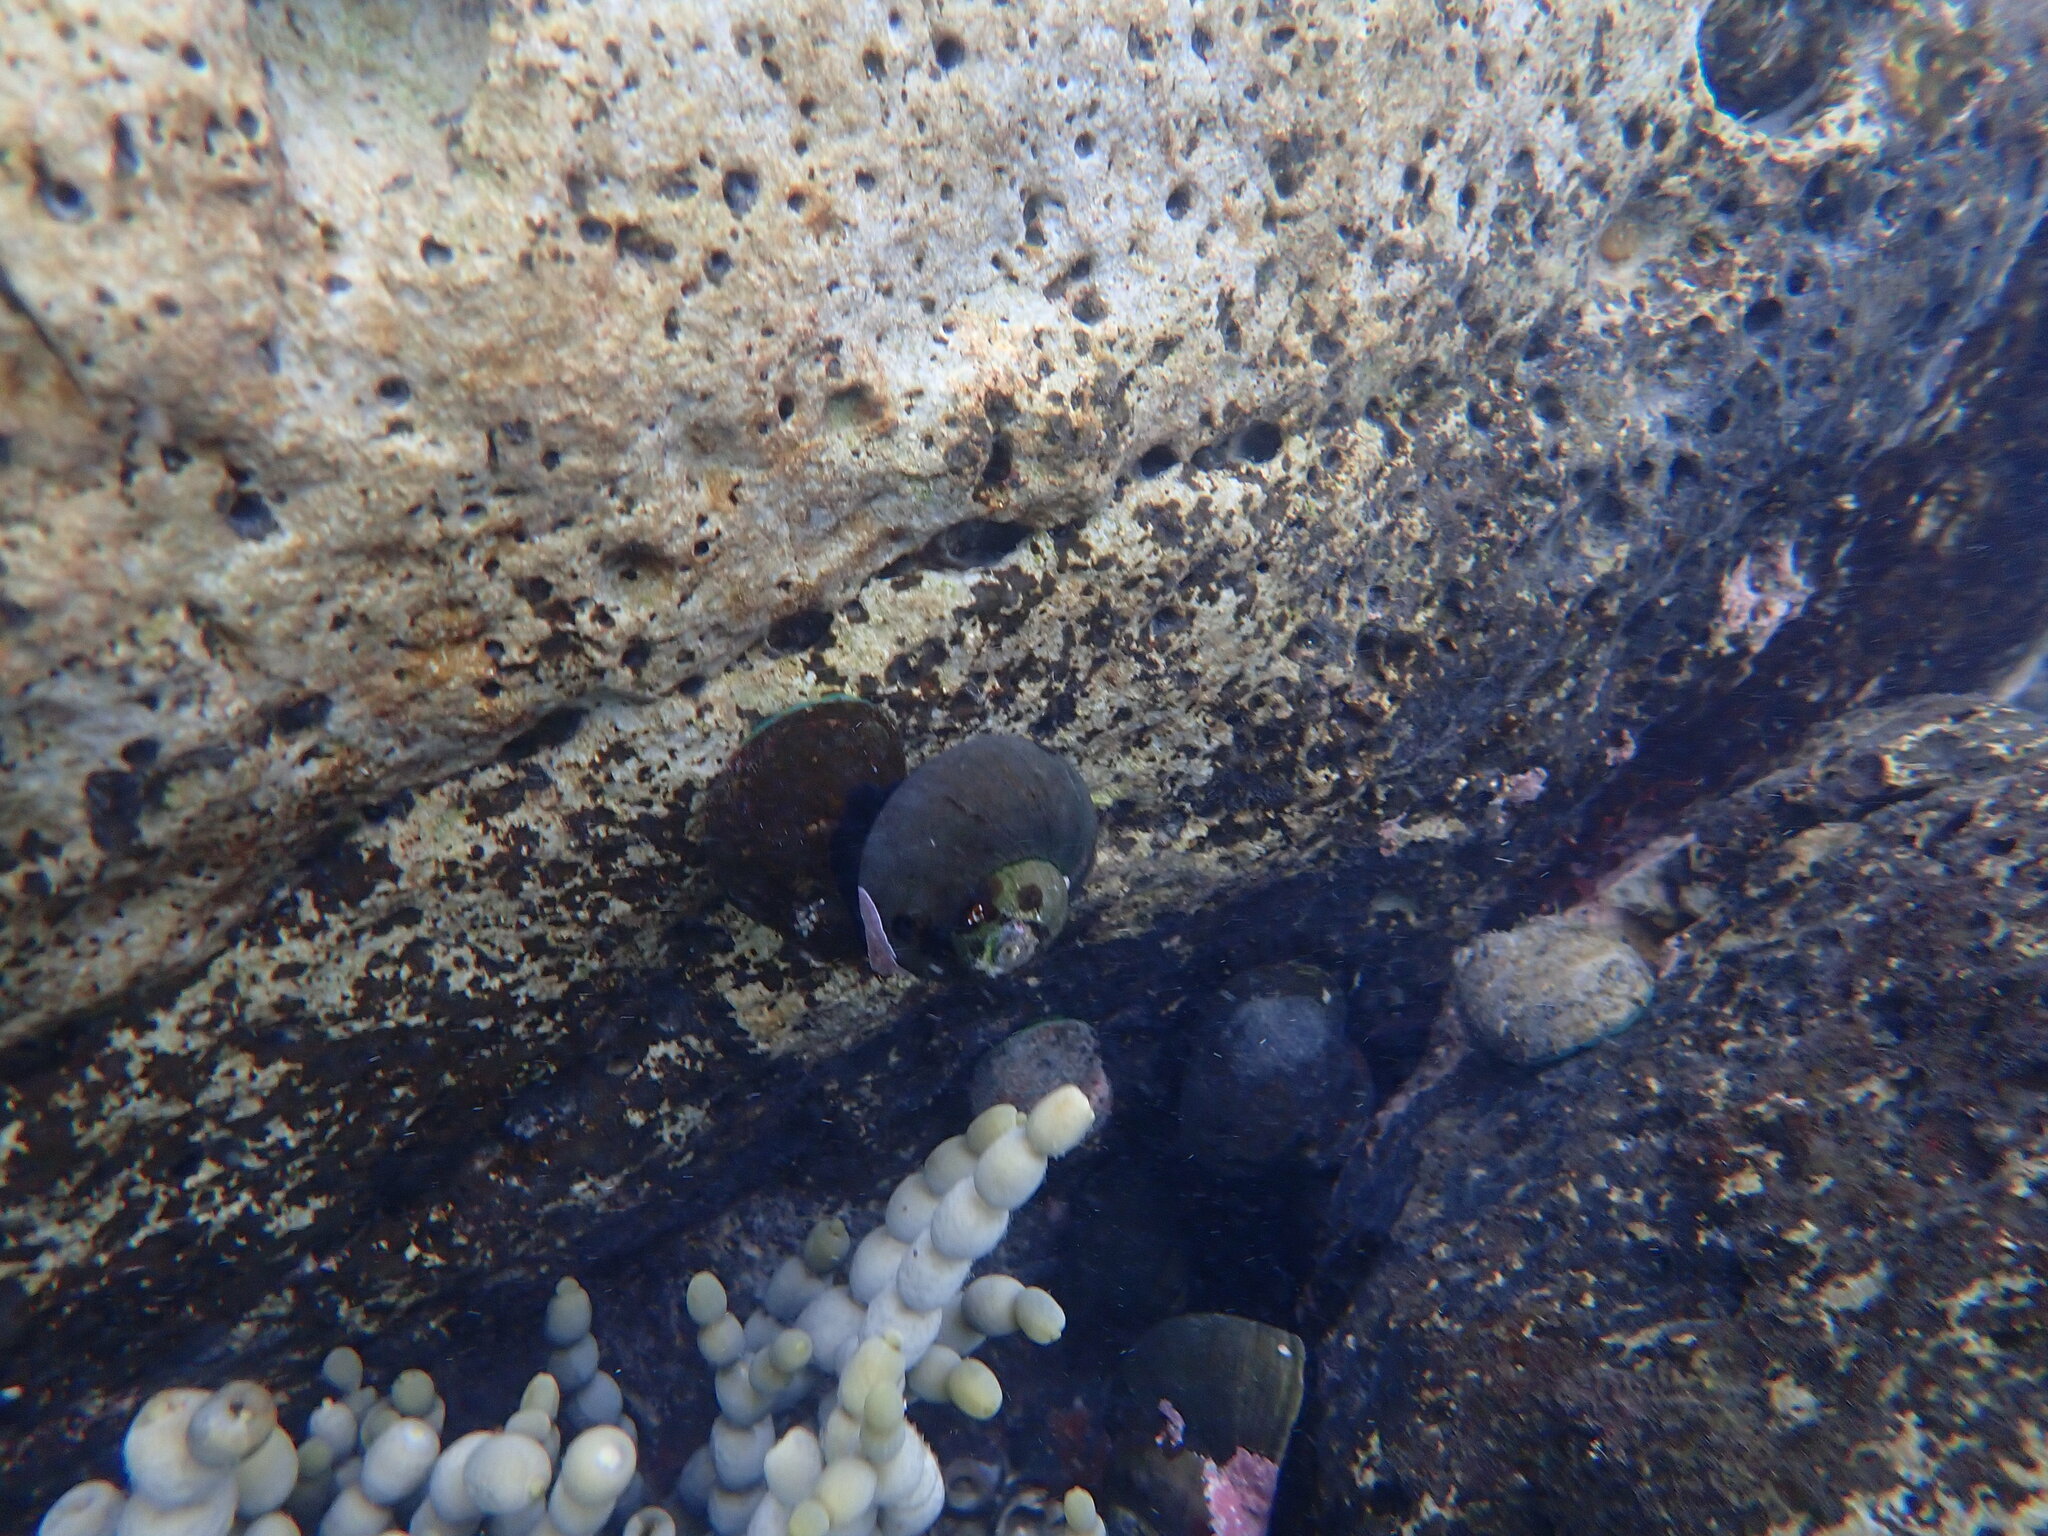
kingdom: Animalia
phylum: Mollusca
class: Gastropoda
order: Trochida
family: Turbinidae
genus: Lunella
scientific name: Lunella smaragda
